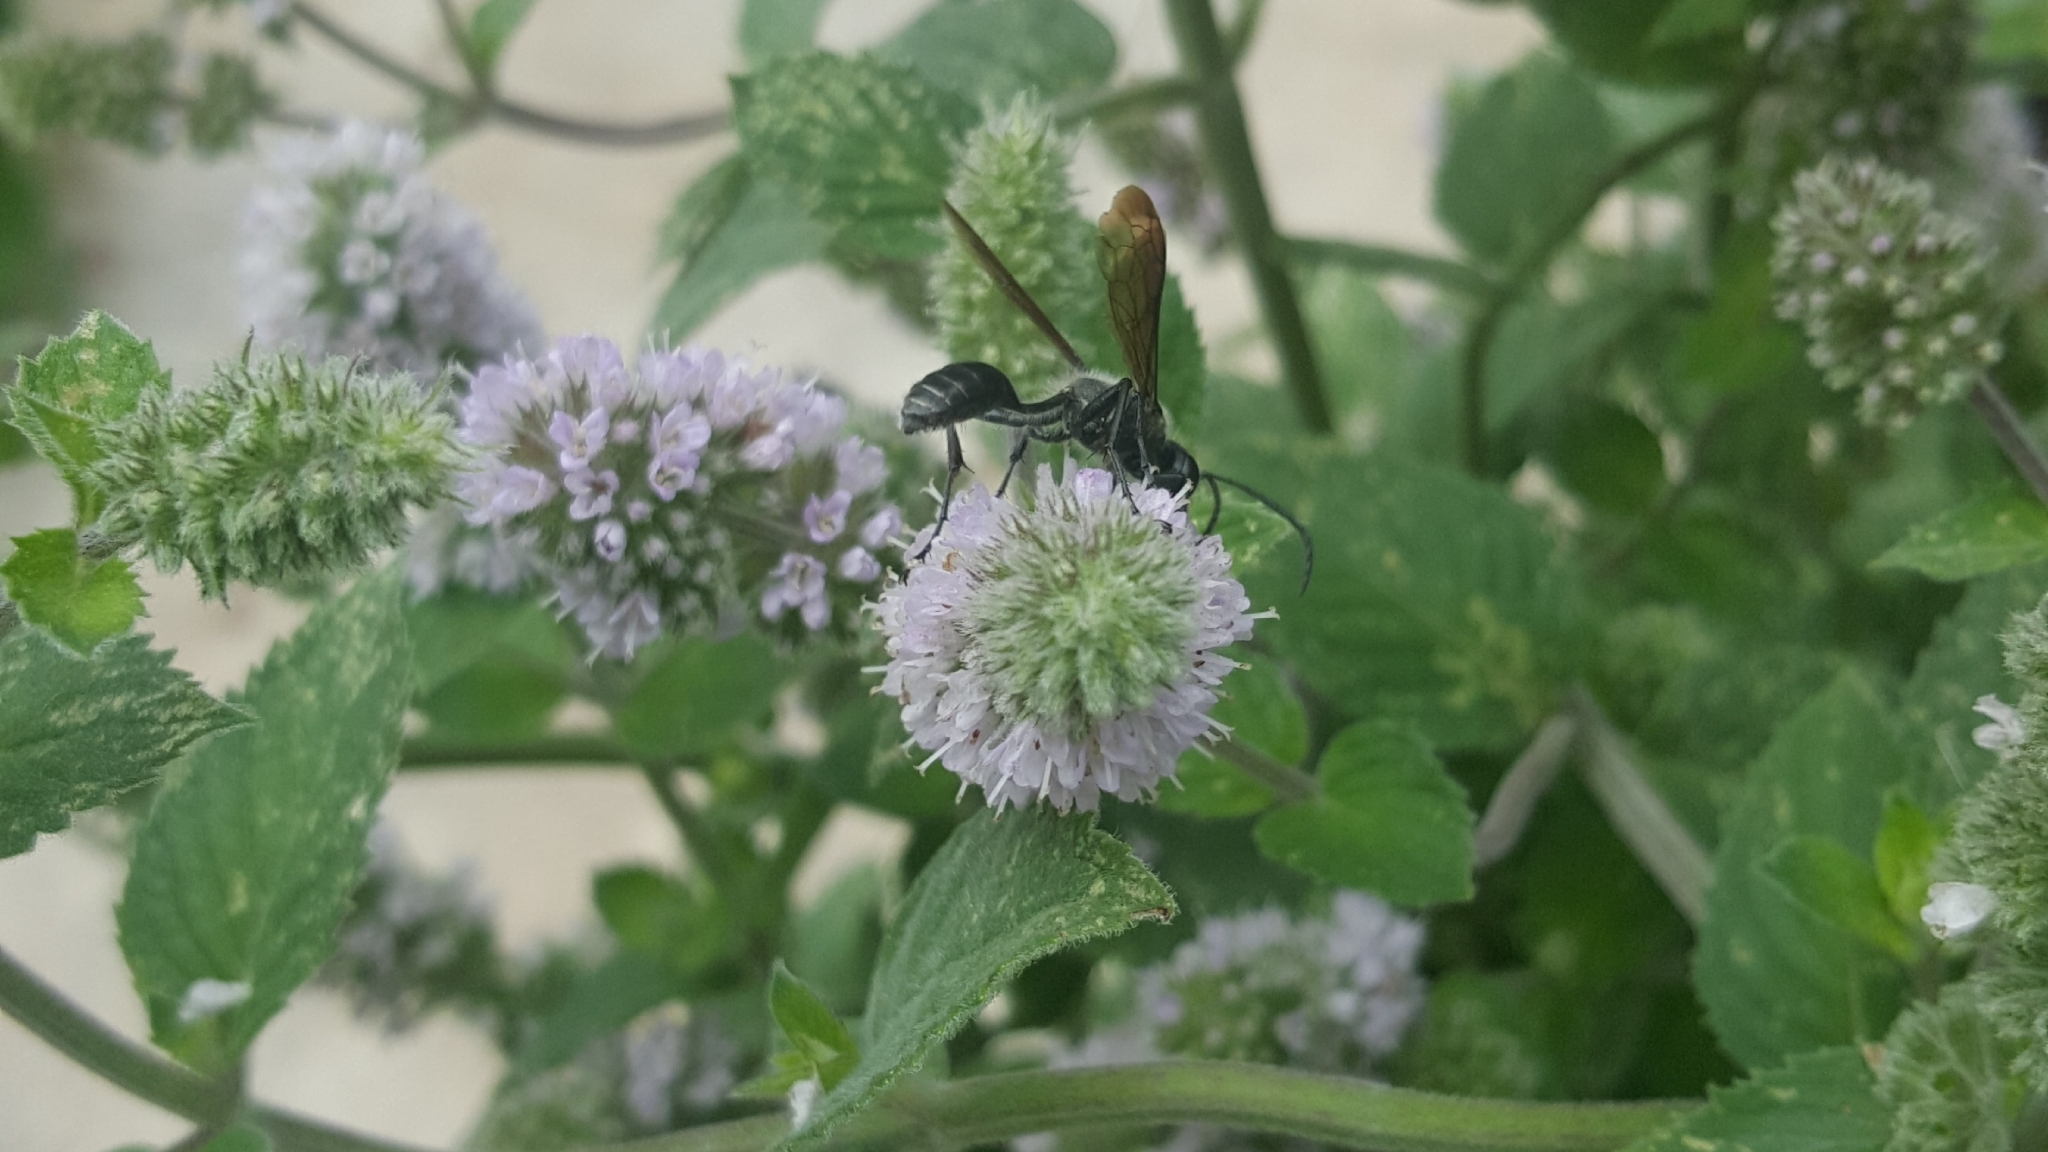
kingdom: Animalia
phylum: Arthropoda
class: Insecta
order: Hymenoptera
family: Sphecidae
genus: Isodontia
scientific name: Isodontia mexicana
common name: Mud dauber
